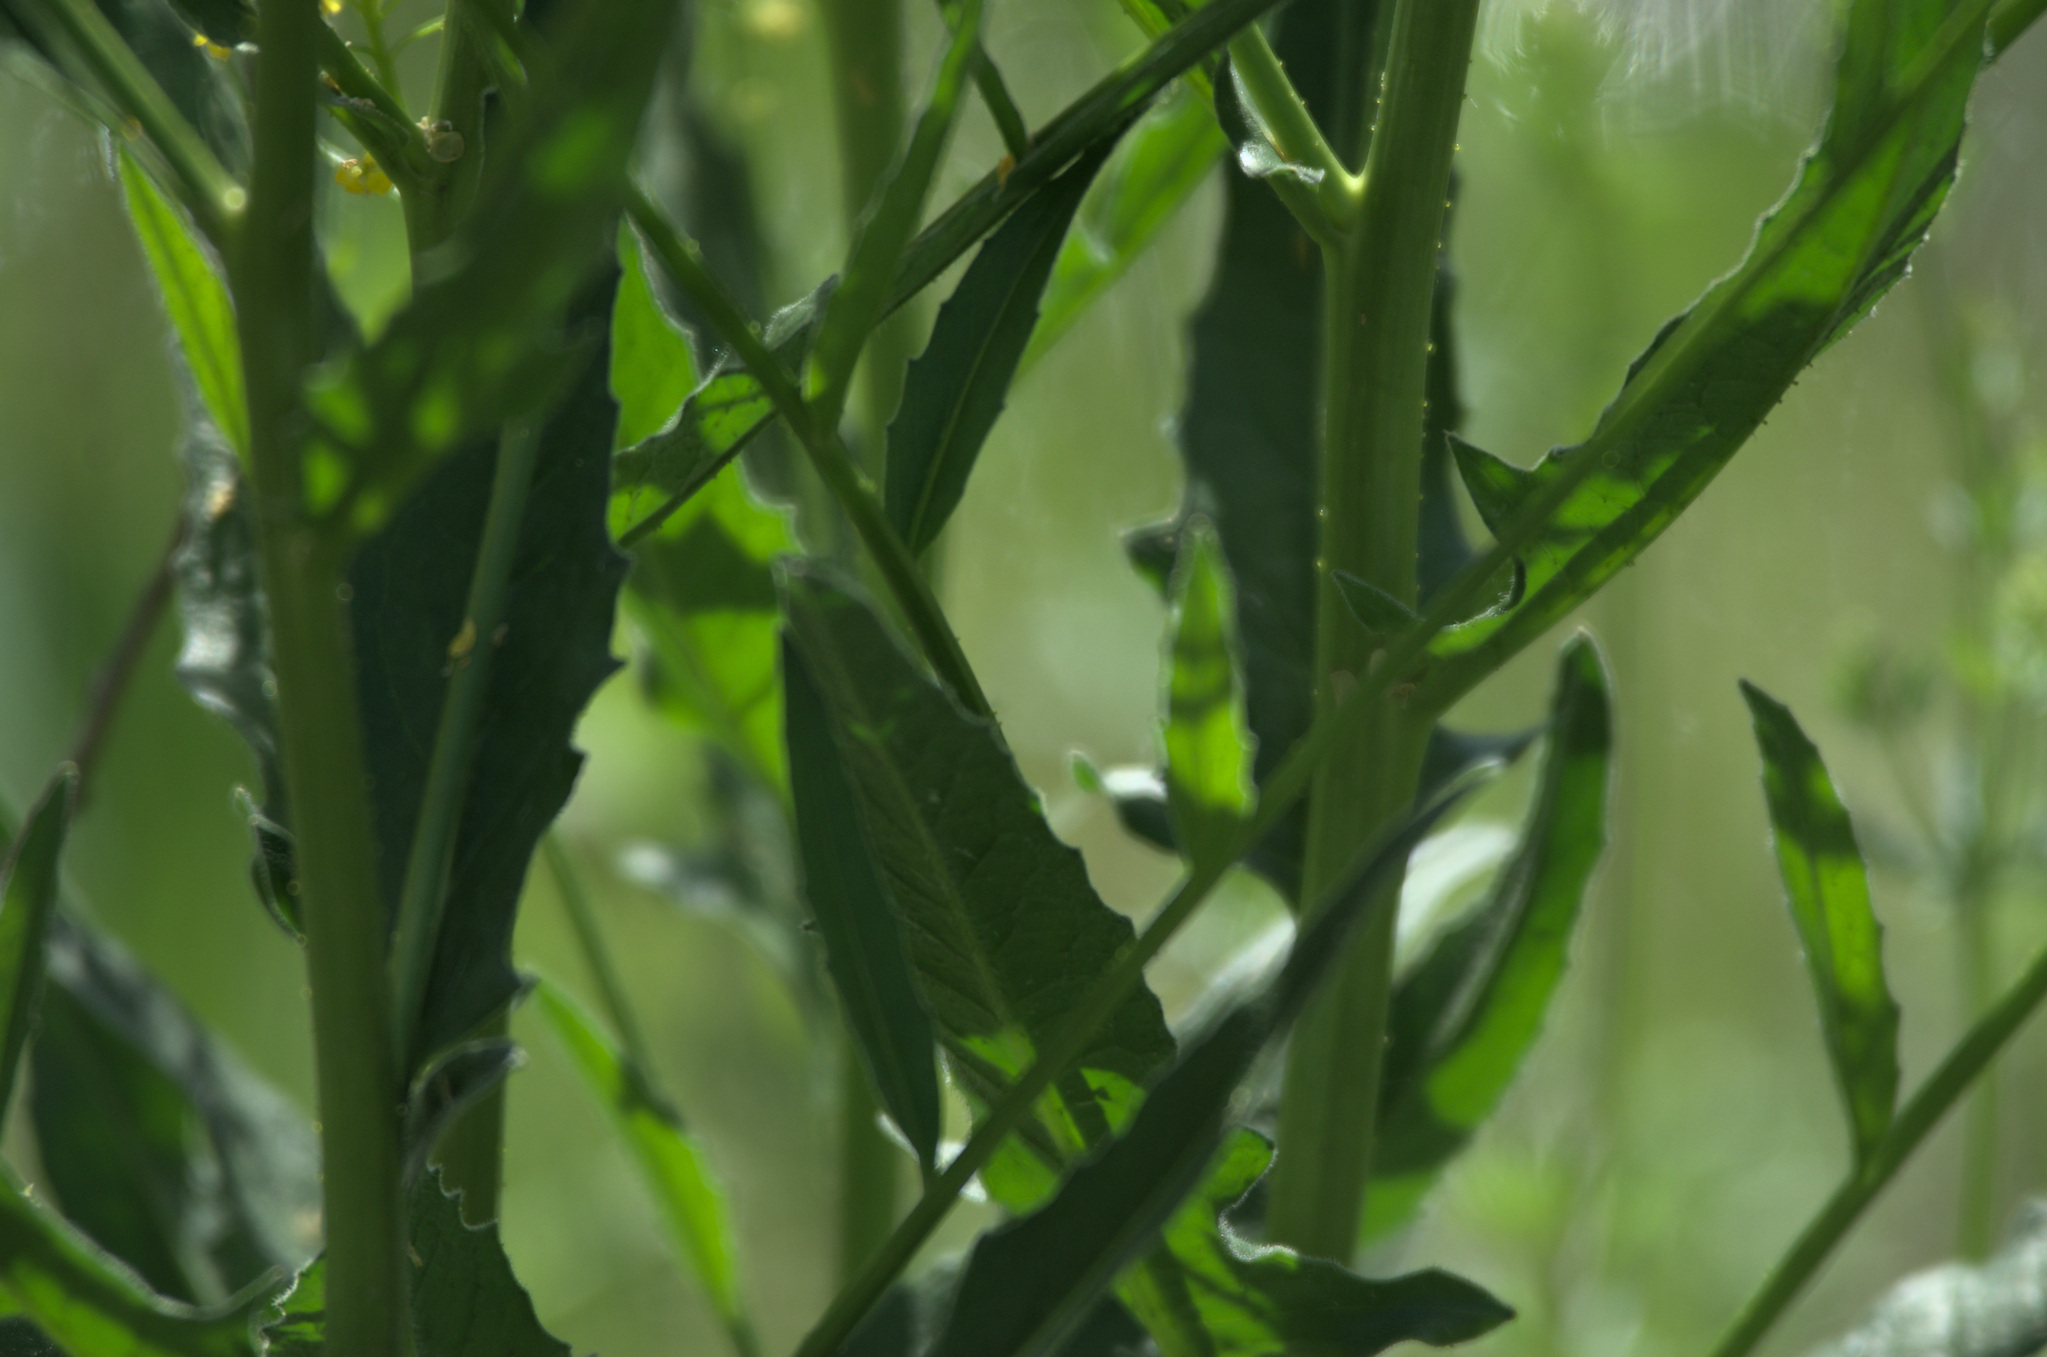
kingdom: Plantae
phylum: Tracheophyta
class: Magnoliopsida
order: Brassicales
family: Brassicaceae
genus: Bunias
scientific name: Bunias orientalis
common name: Warty-cabbage
